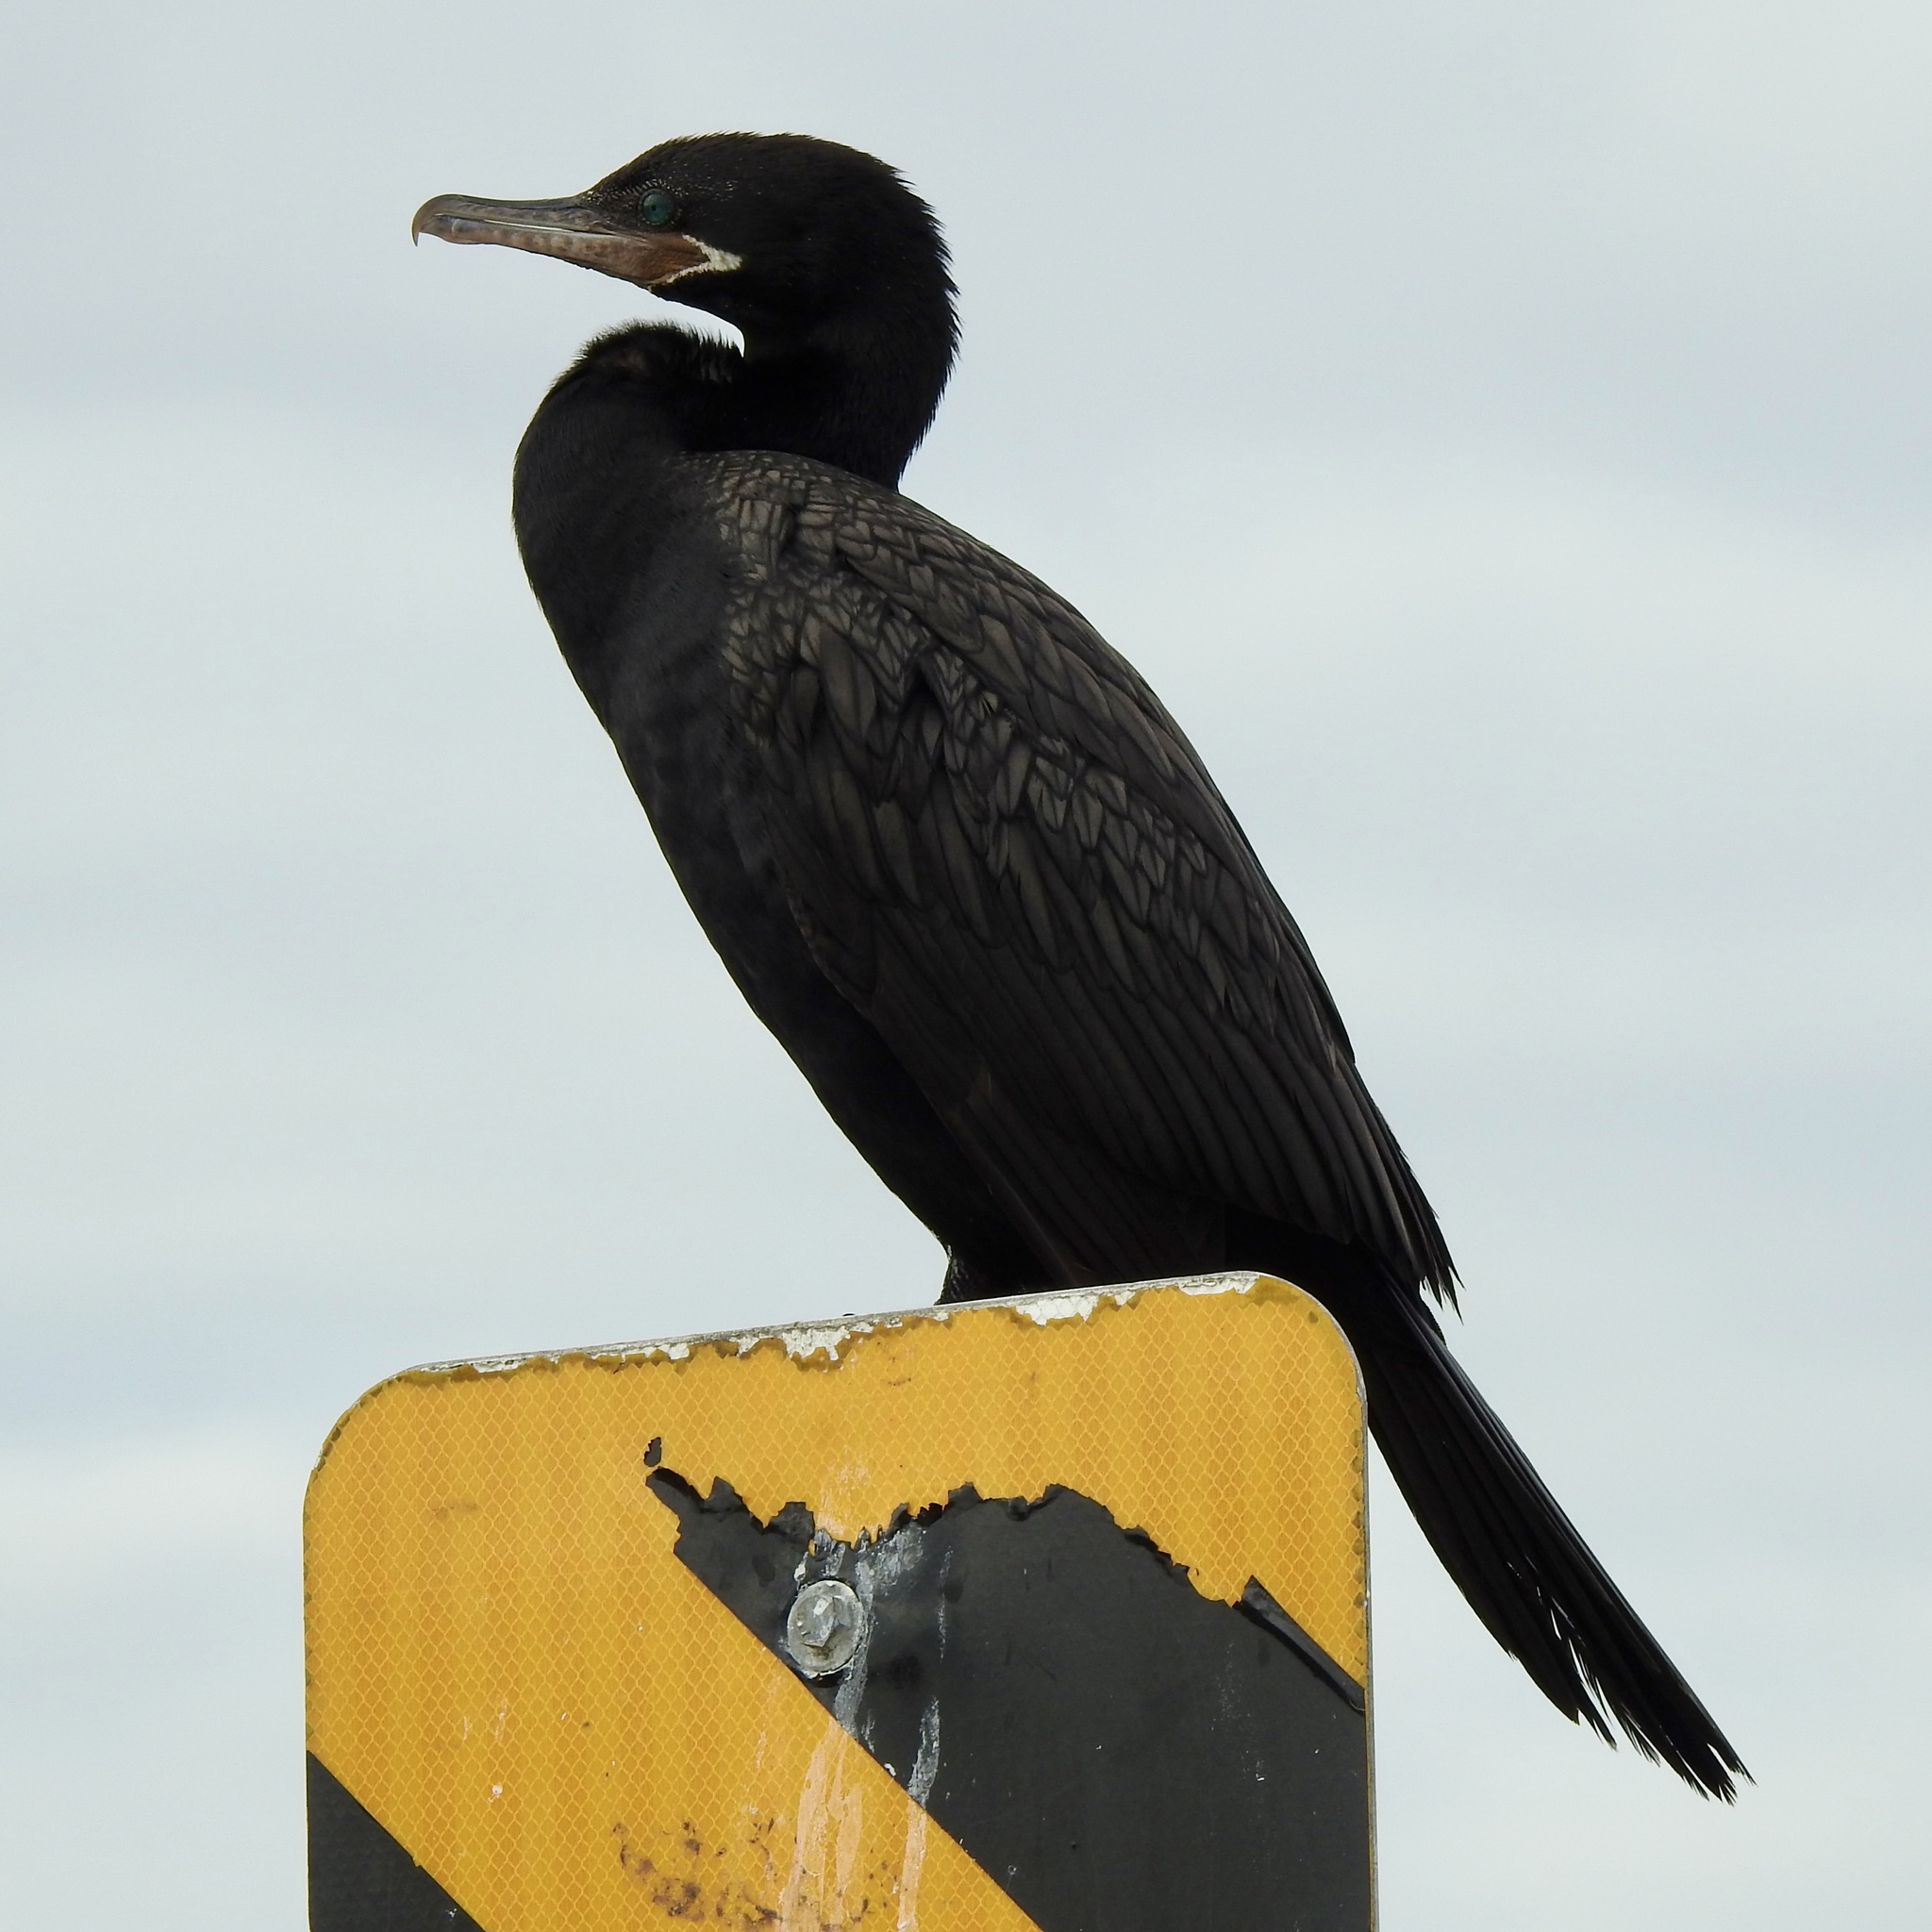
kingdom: Animalia
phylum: Chordata
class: Aves
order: Suliformes
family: Phalacrocoracidae
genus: Phalacrocorax
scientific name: Phalacrocorax brasilianus
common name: Neotropic cormorant
